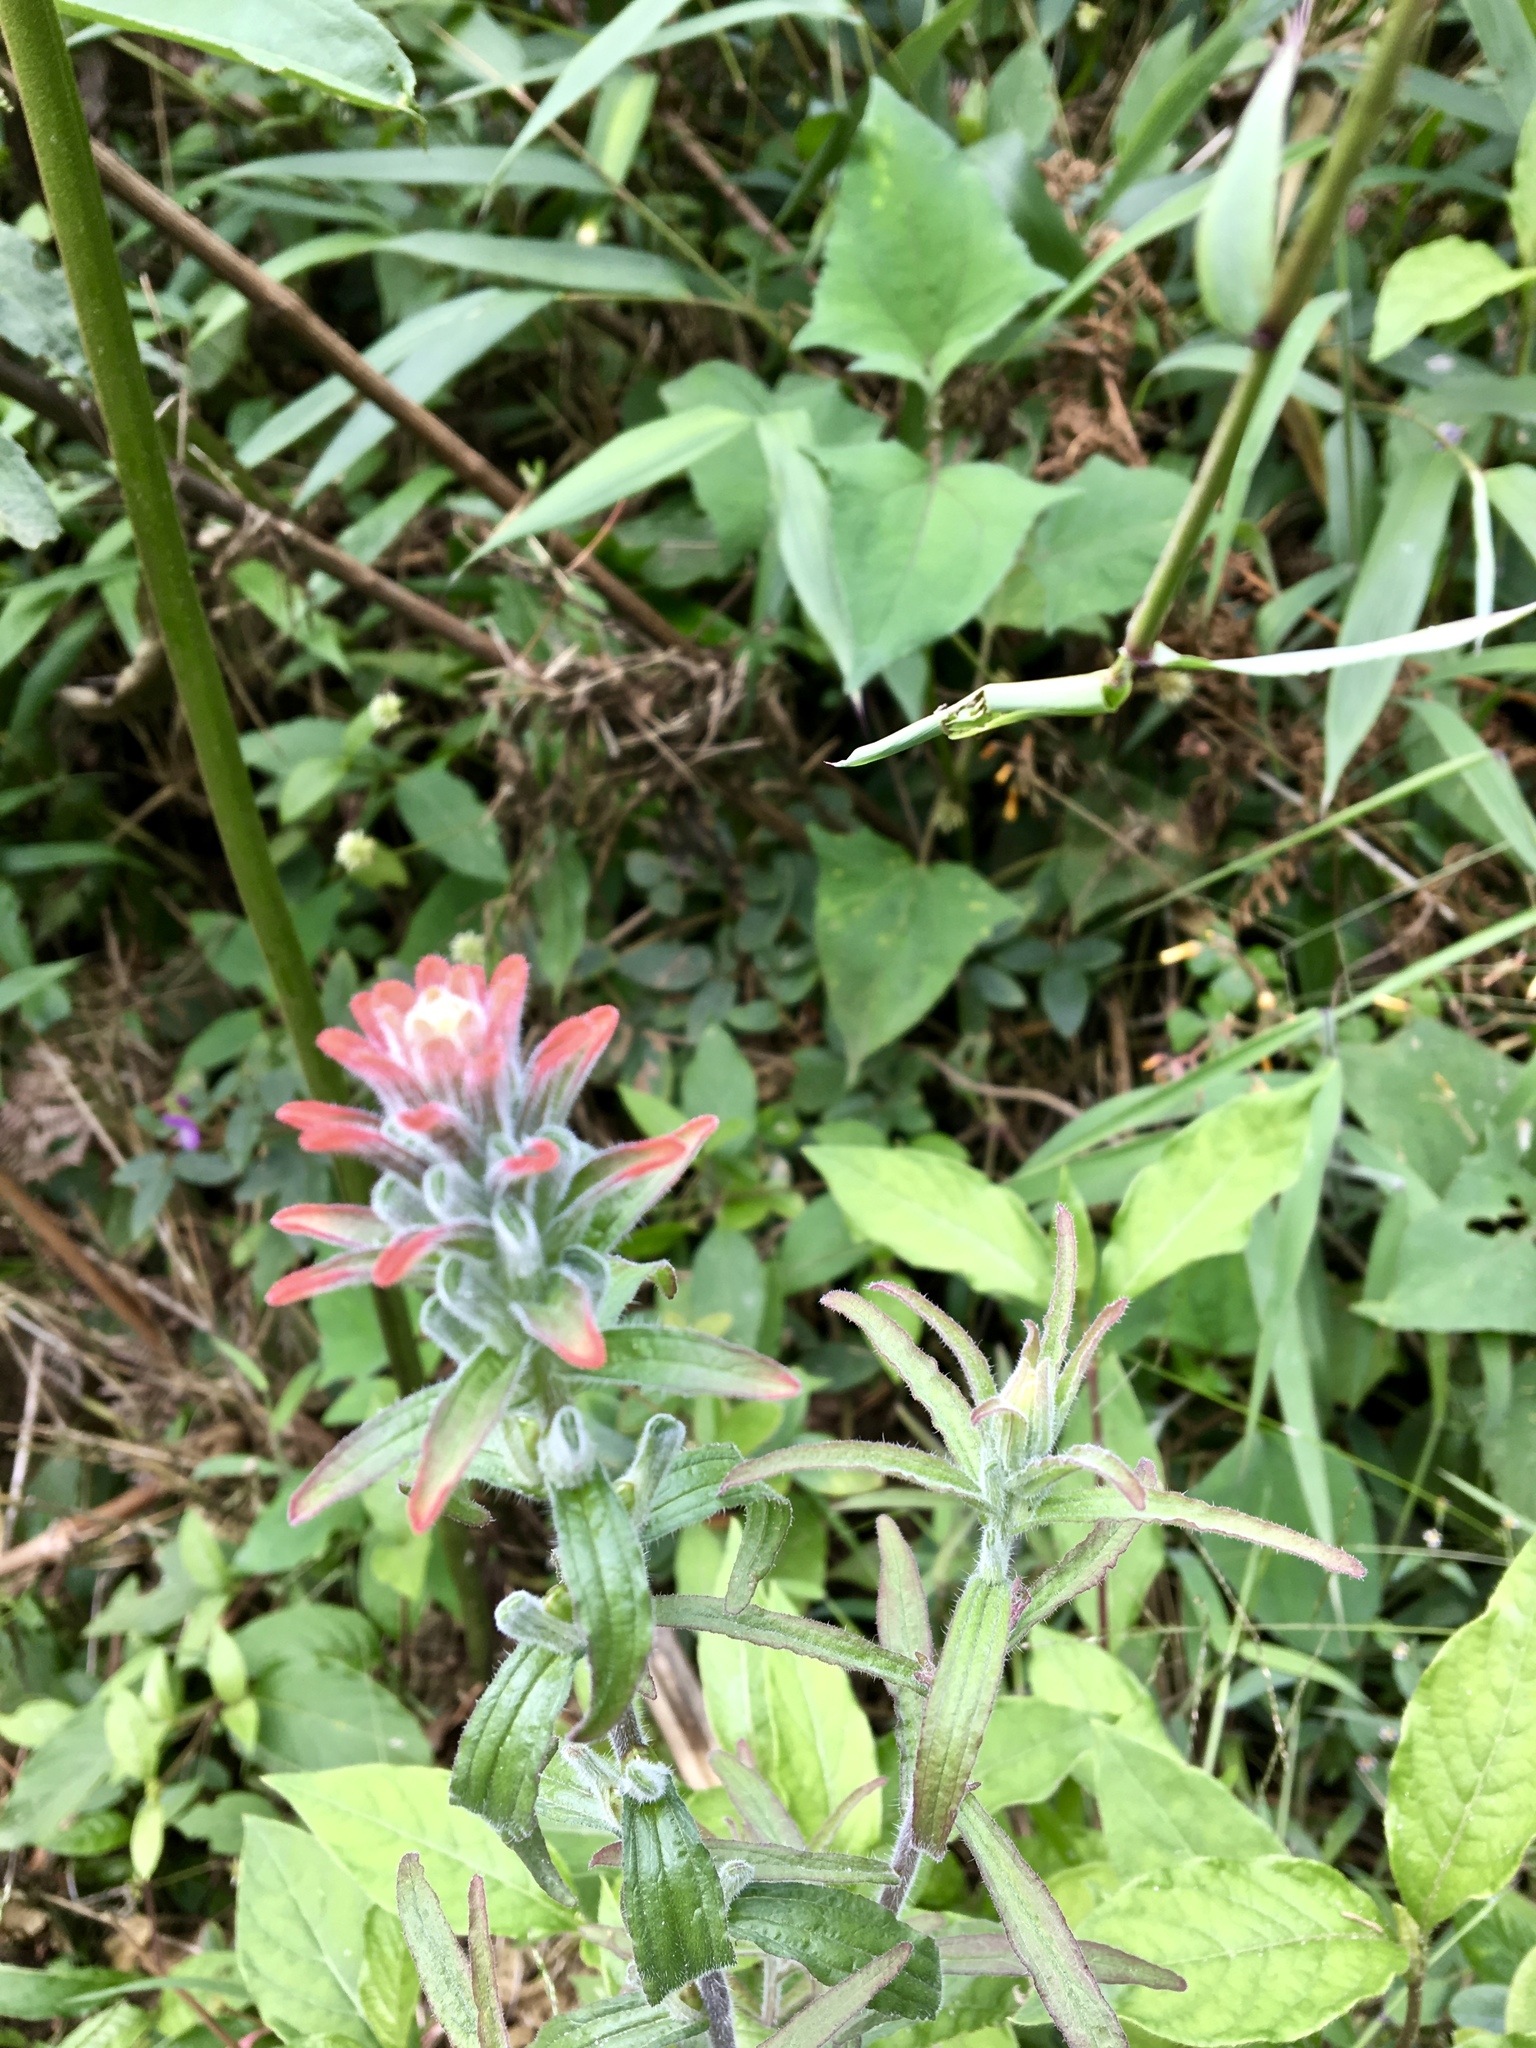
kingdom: Plantae
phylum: Tracheophyta
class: Magnoliopsida
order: Lamiales
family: Orobanchaceae
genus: Castilleja
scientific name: Castilleja arvensis
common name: Indian paintbrush
